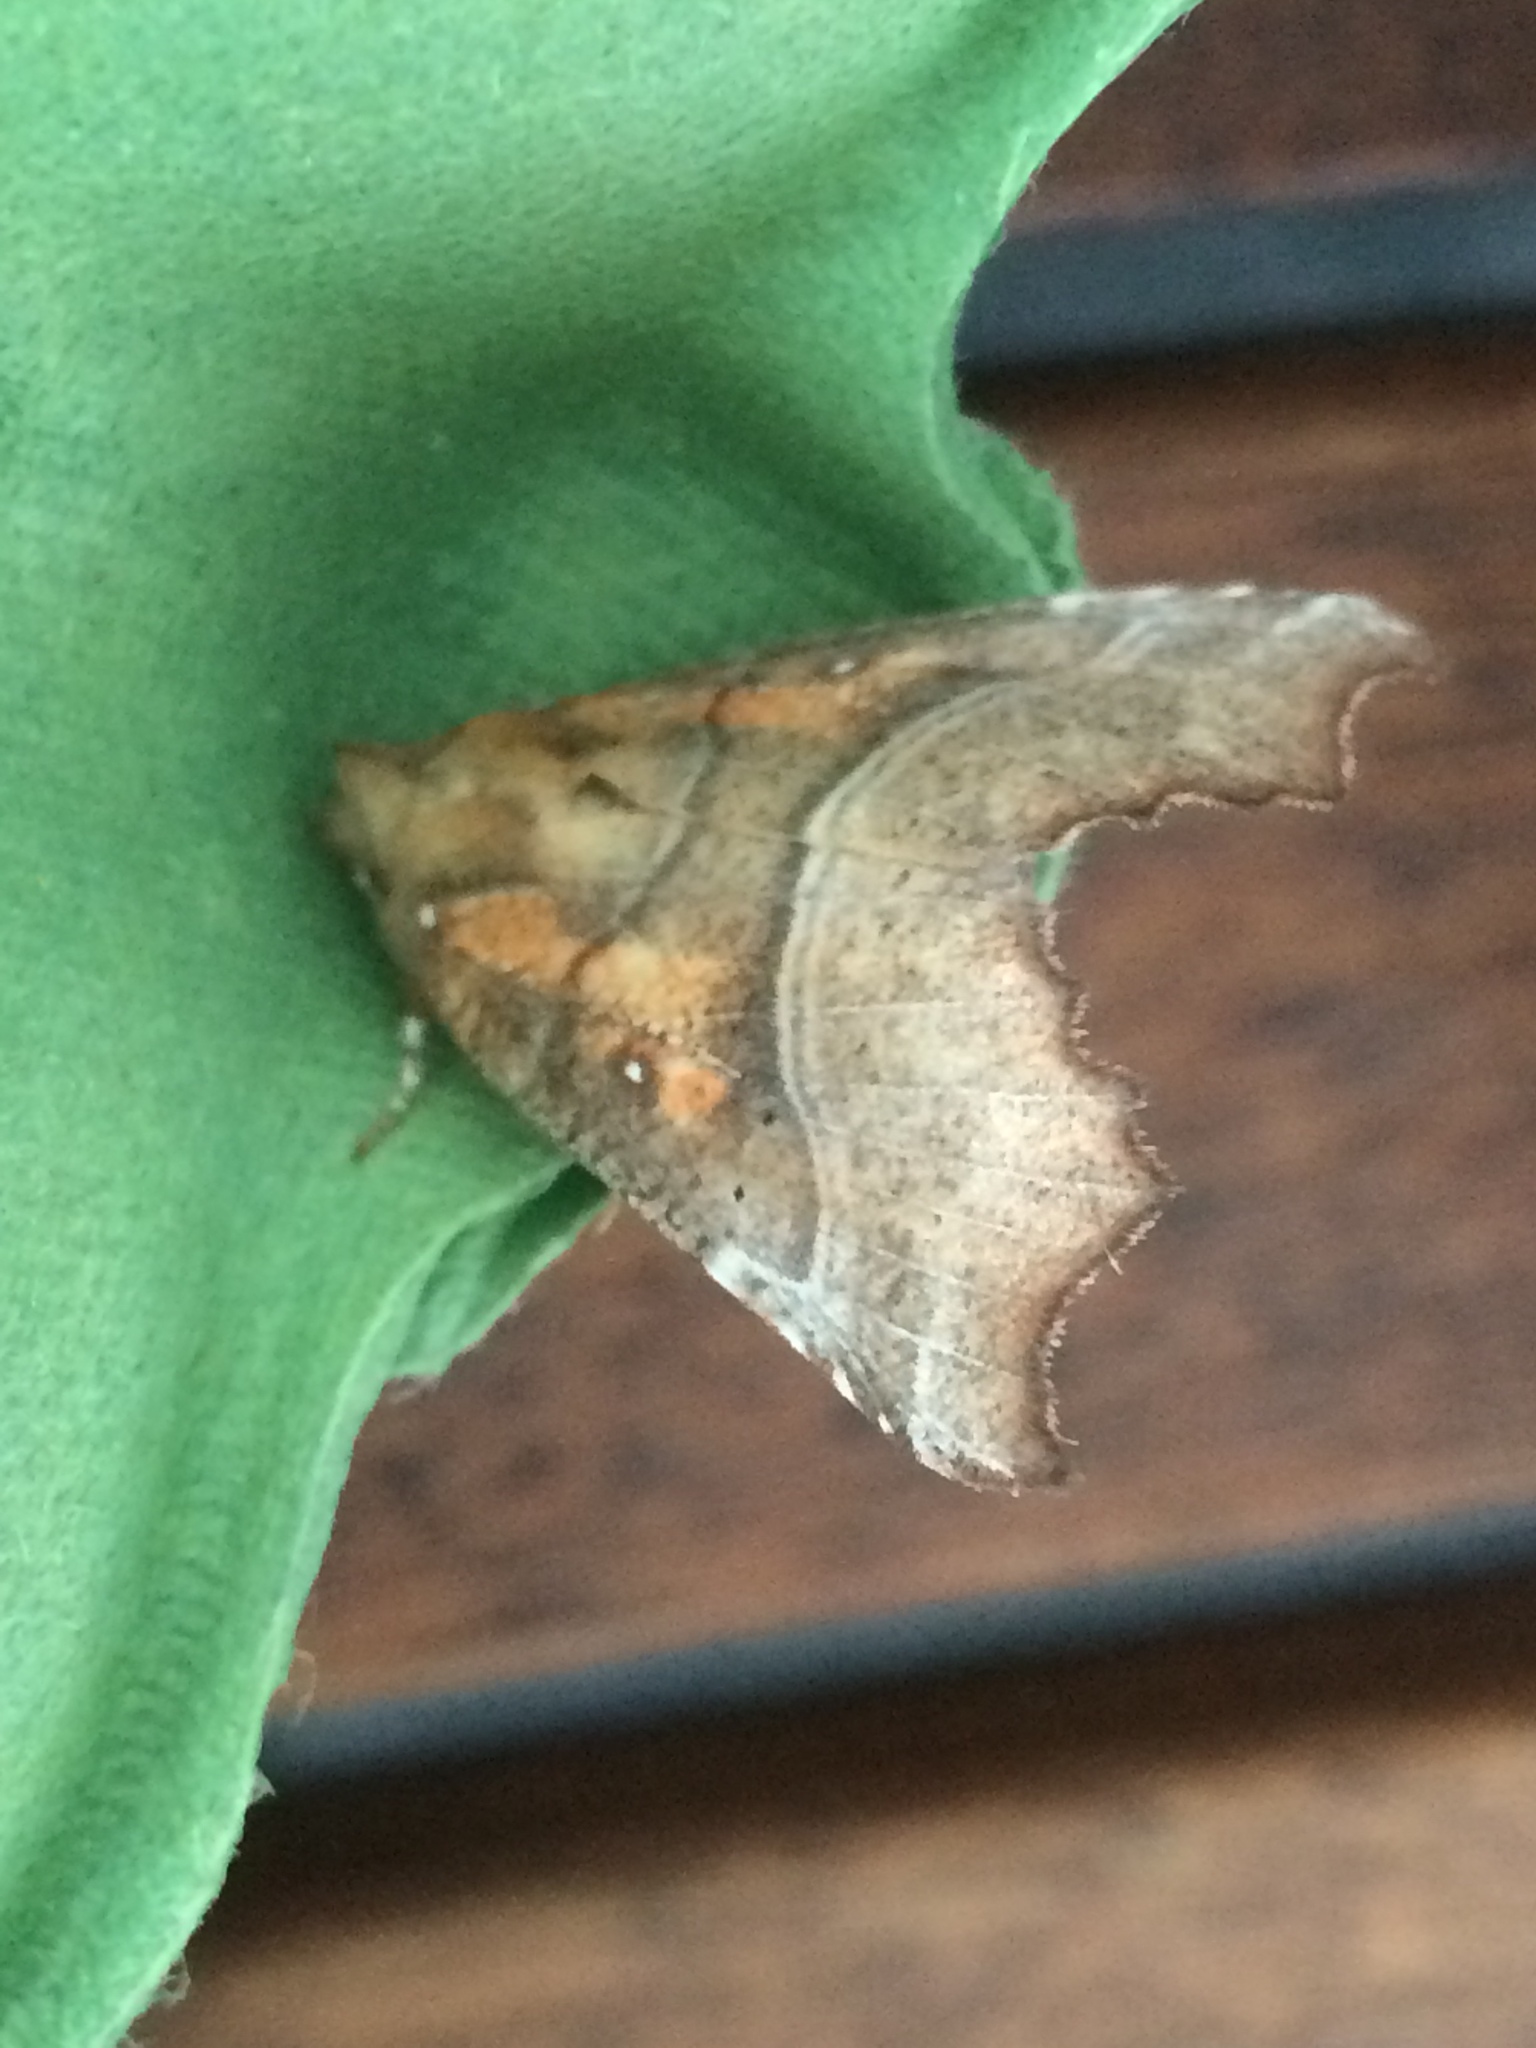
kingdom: Animalia
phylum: Arthropoda
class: Insecta
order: Lepidoptera
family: Erebidae
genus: Scoliopteryx
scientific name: Scoliopteryx libatrix
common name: Herald
